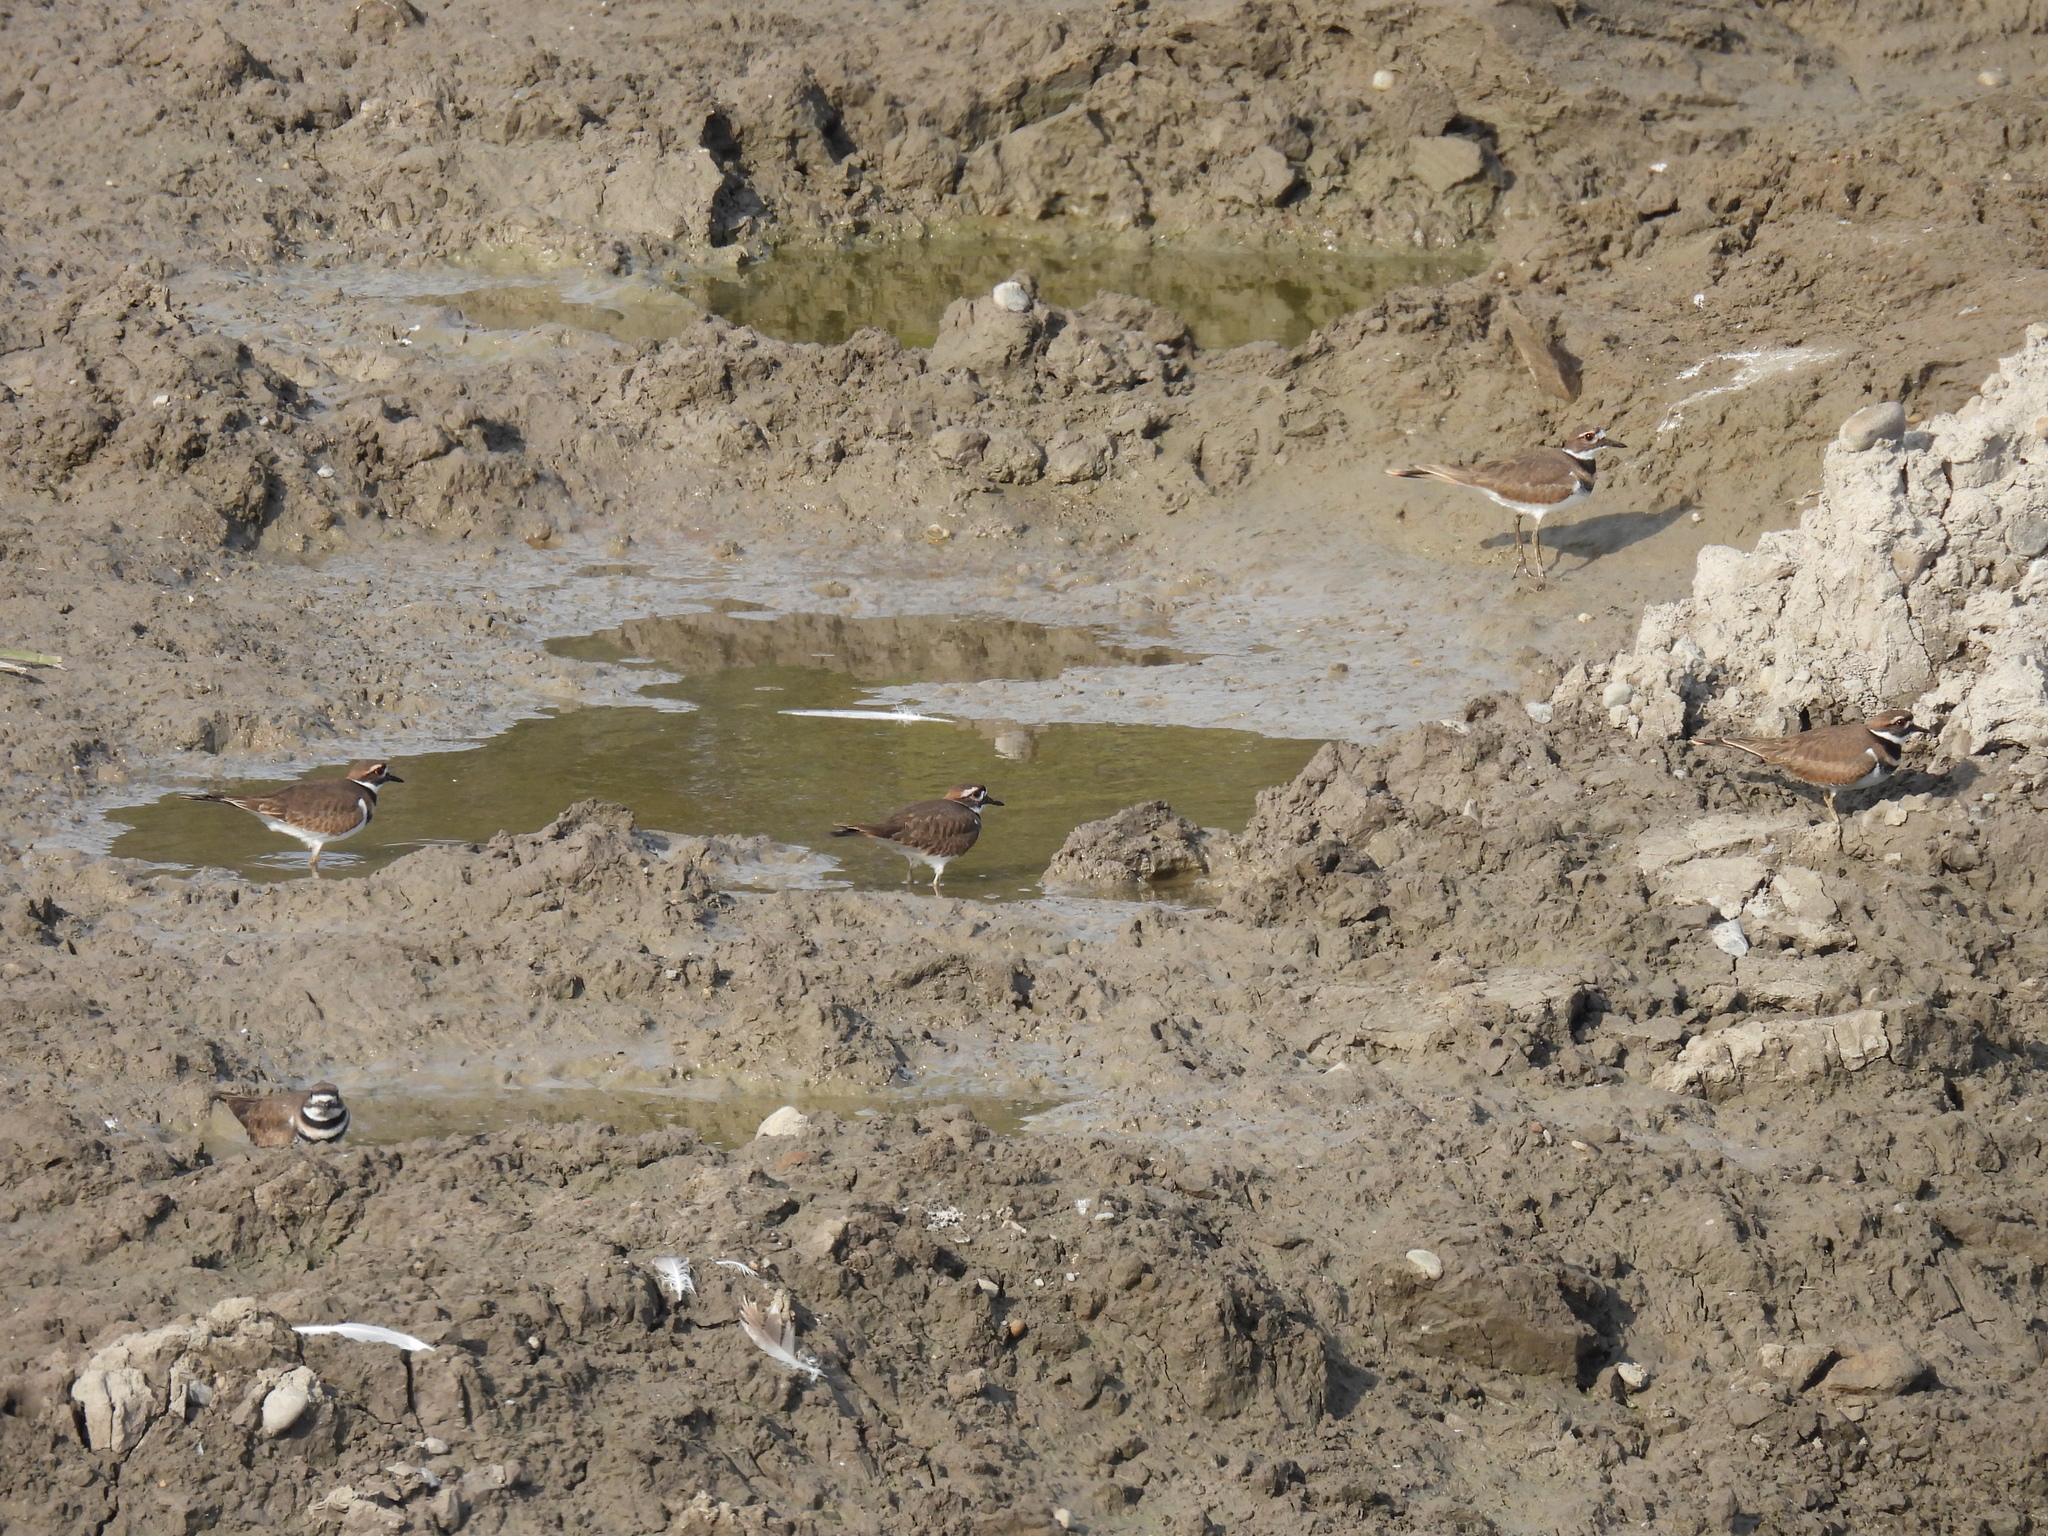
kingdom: Animalia
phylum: Chordata
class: Aves
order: Charadriiformes
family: Charadriidae
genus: Charadrius
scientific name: Charadrius vociferus
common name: Killdeer
